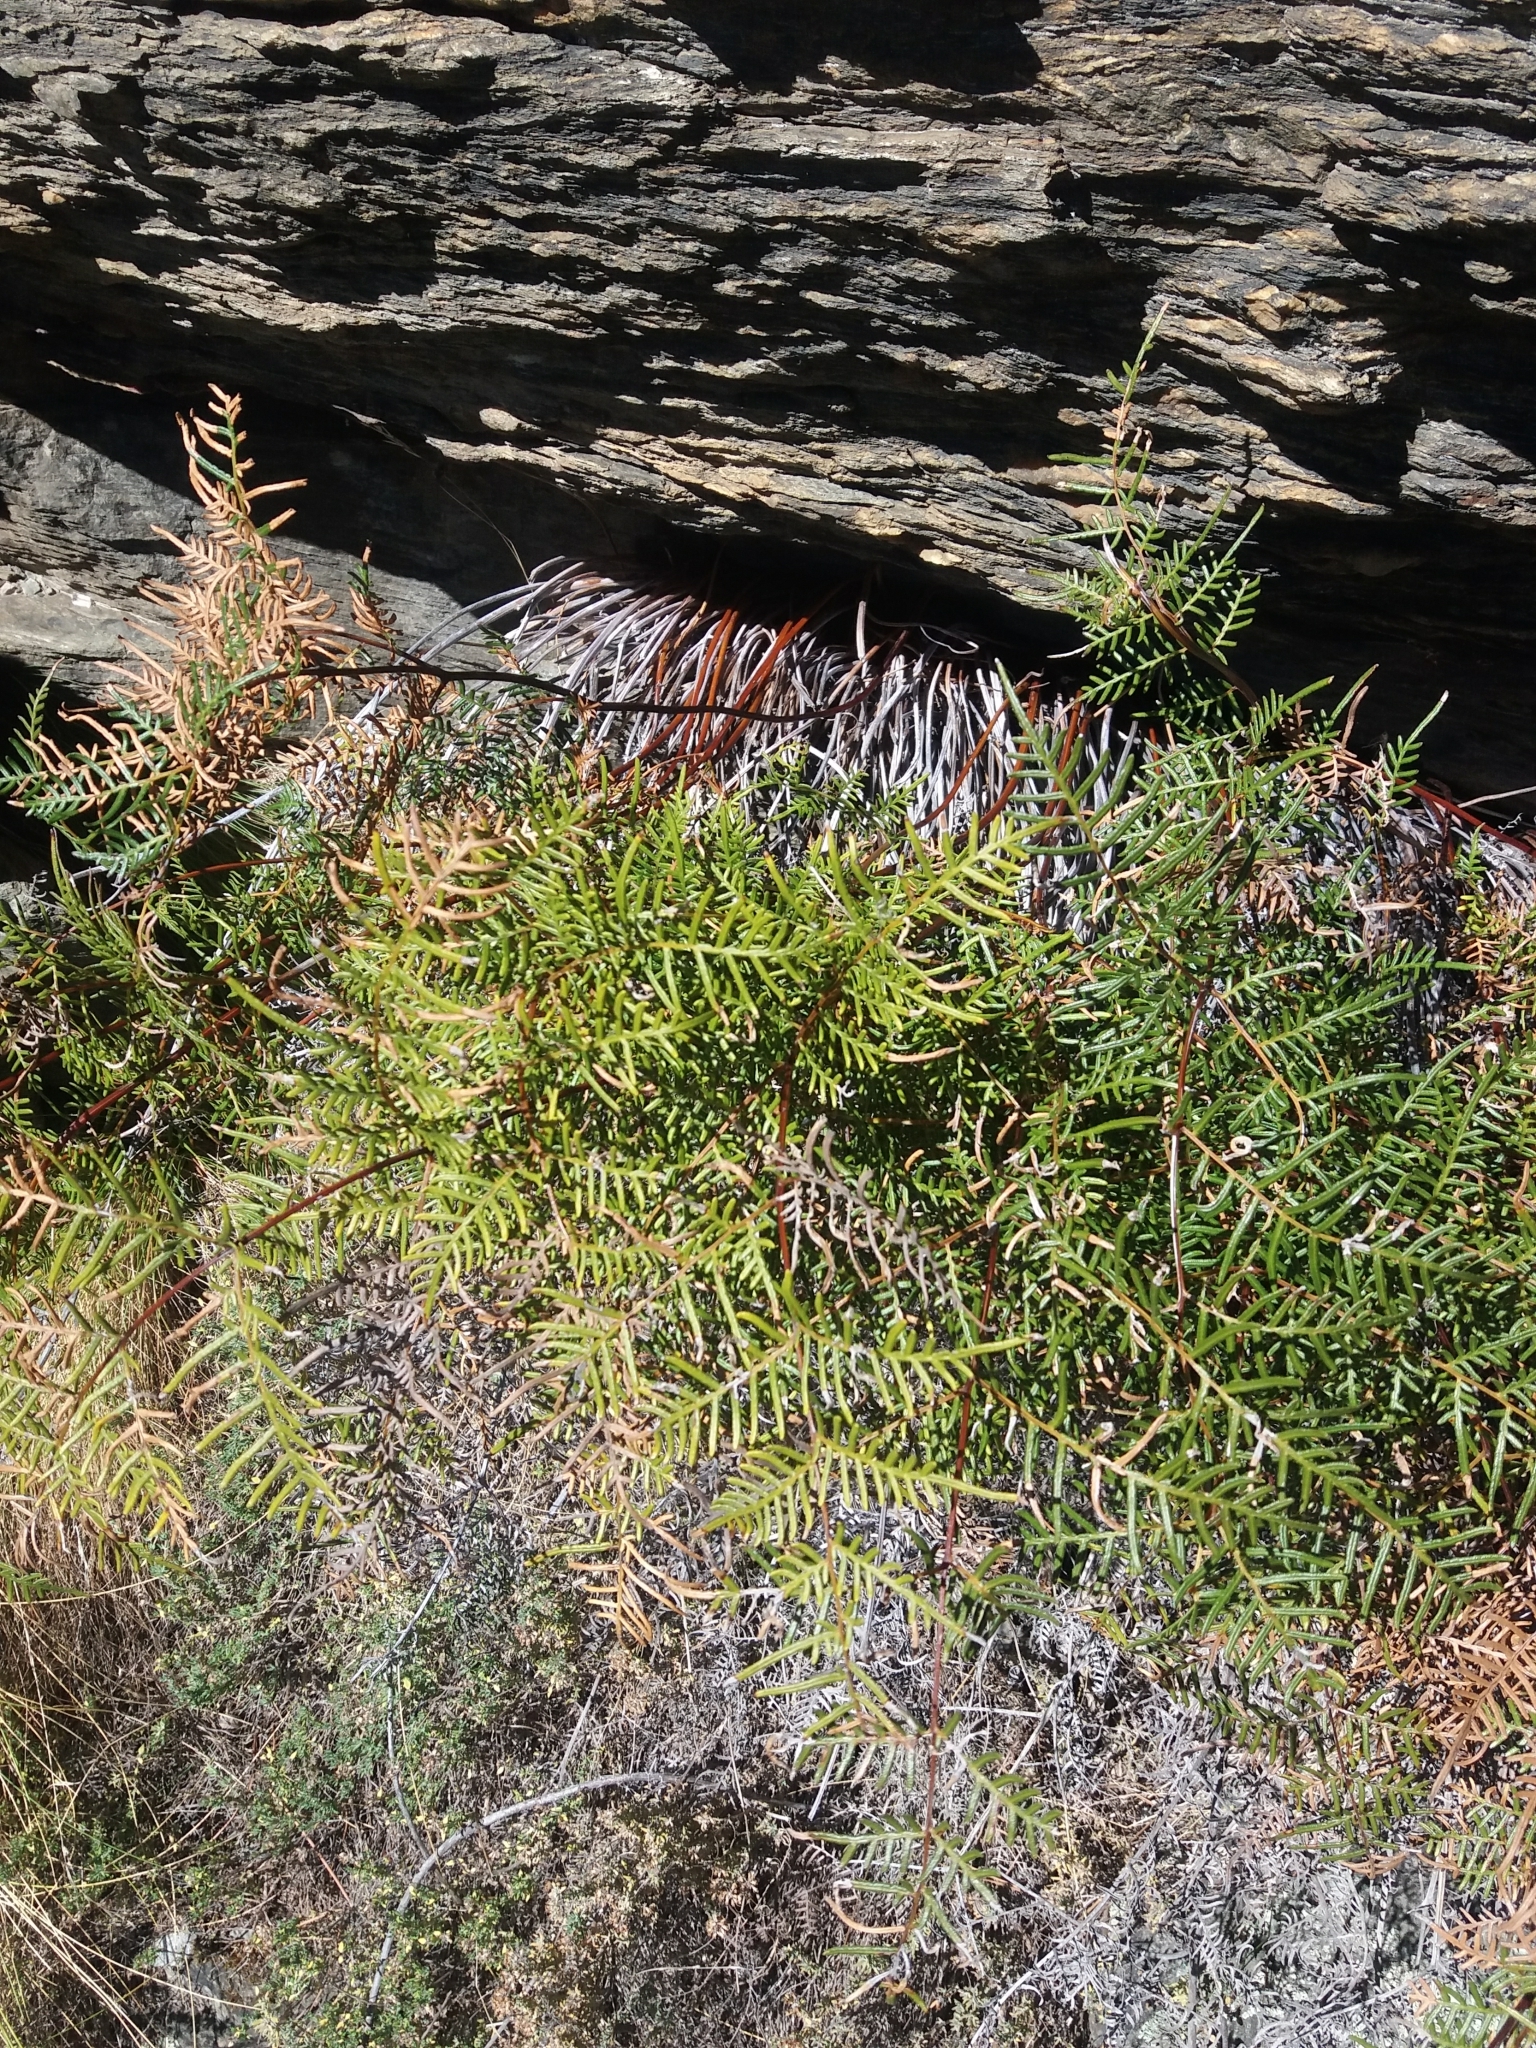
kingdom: Plantae
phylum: Tracheophyta
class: Polypodiopsida
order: Polypodiales
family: Dennstaedtiaceae
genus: Pteridium
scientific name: Pteridium esculentum
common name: Bracken fern
